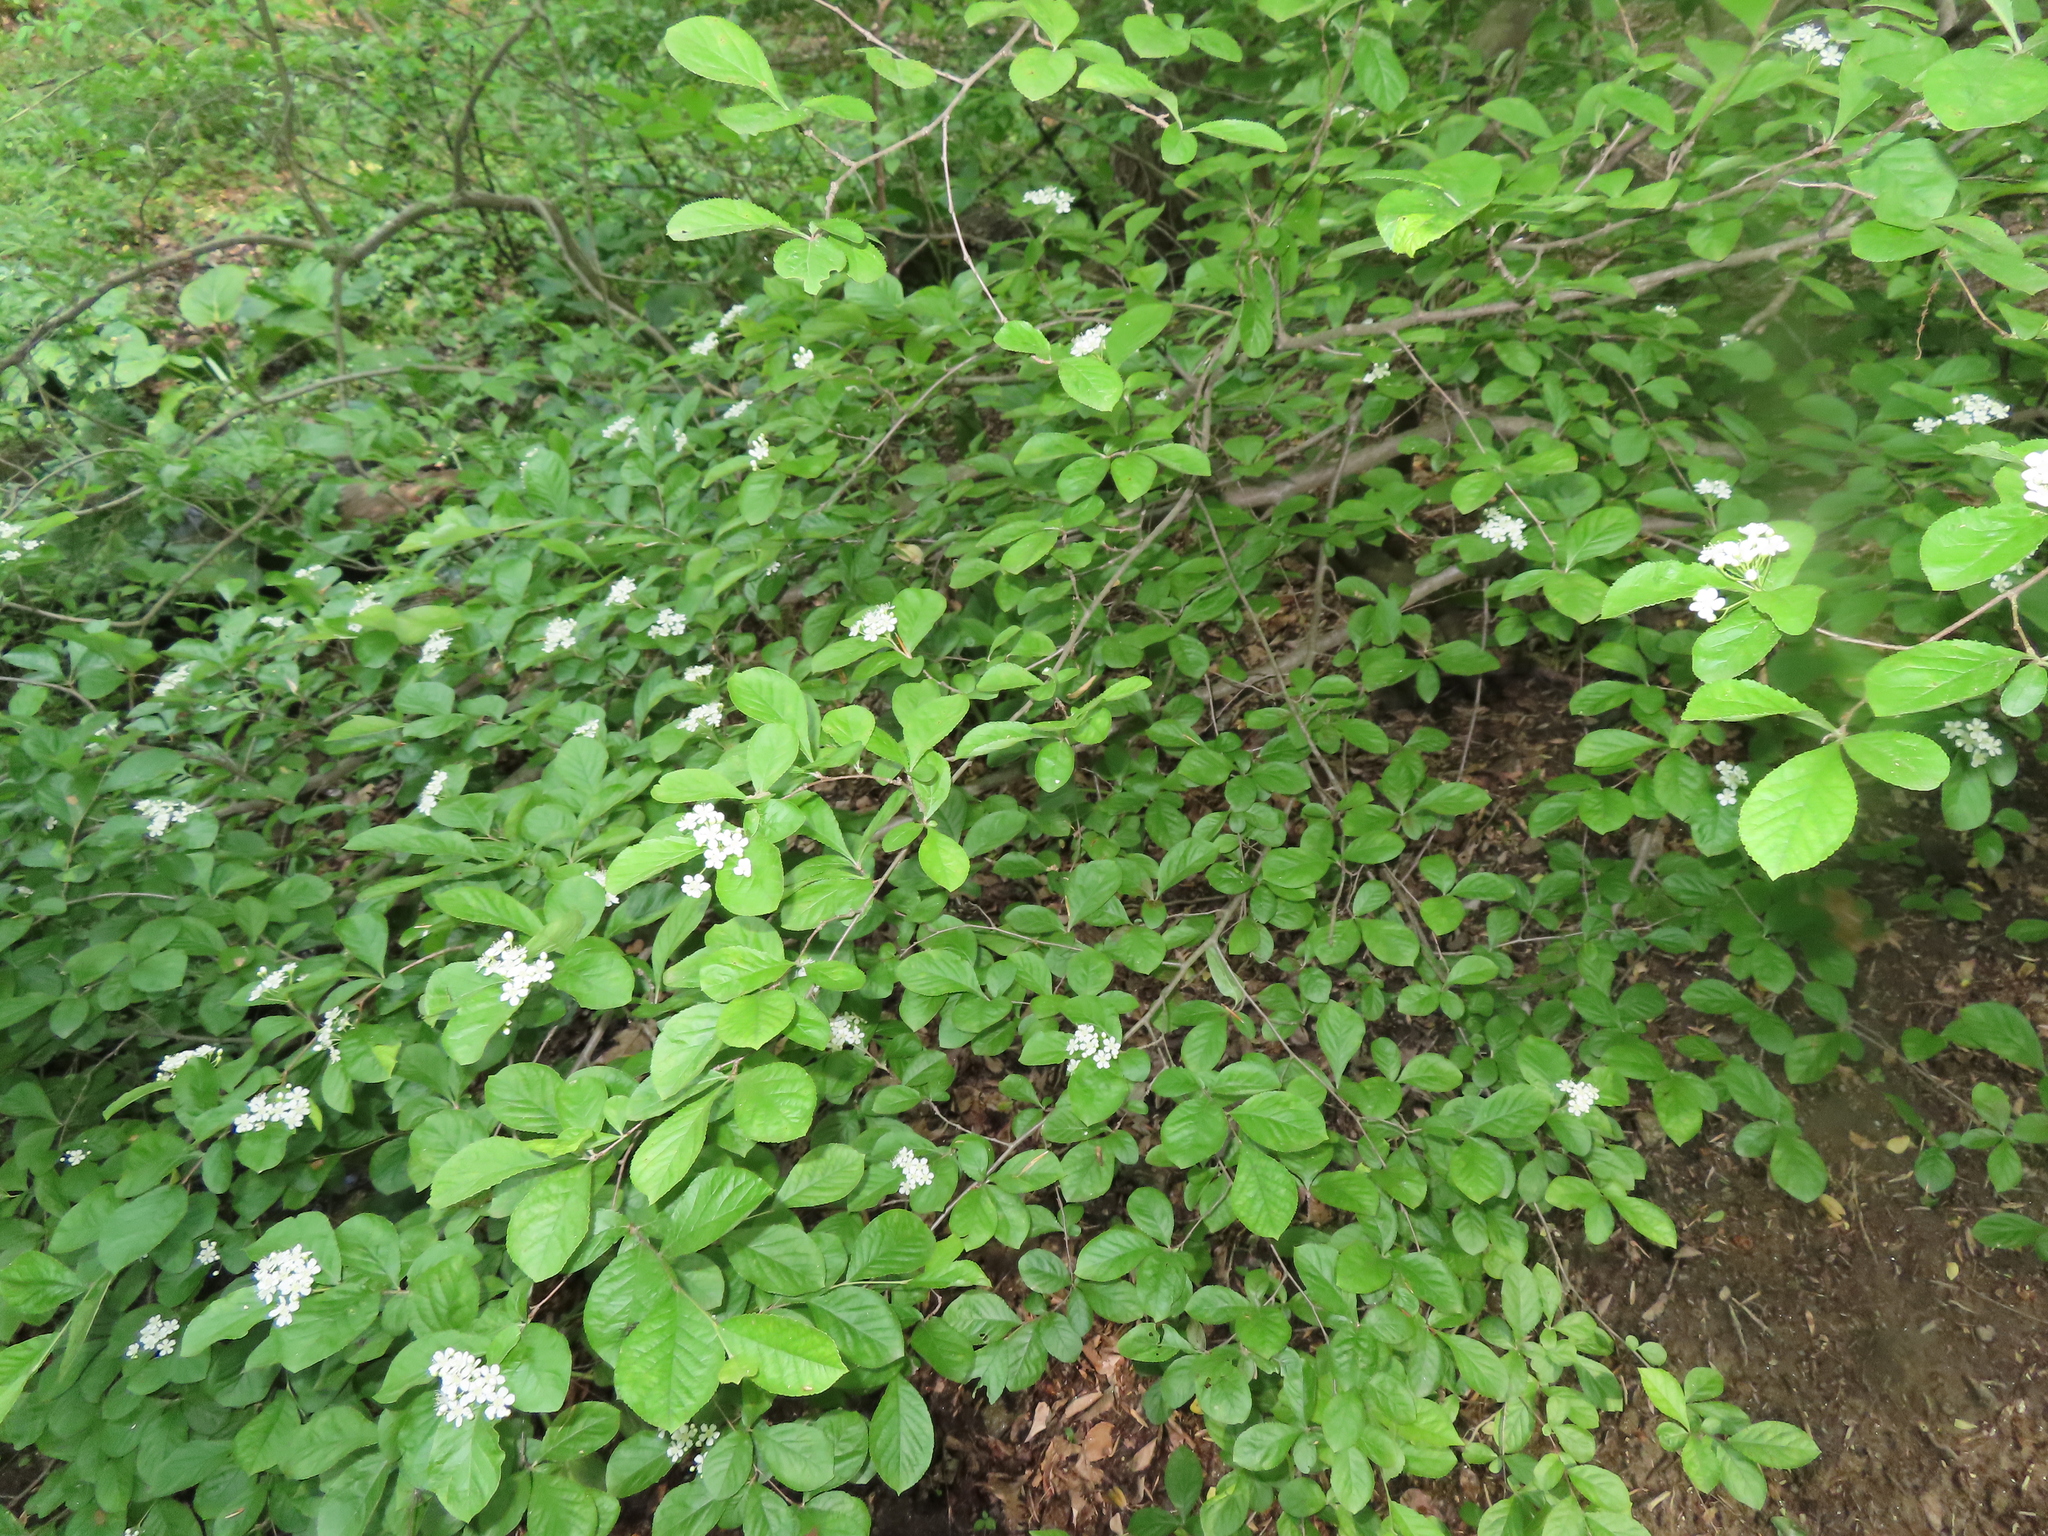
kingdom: Plantae
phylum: Tracheophyta
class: Magnoliopsida
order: Rosales
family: Rosaceae
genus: Pourthiaea
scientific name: Pourthiaea villosa
